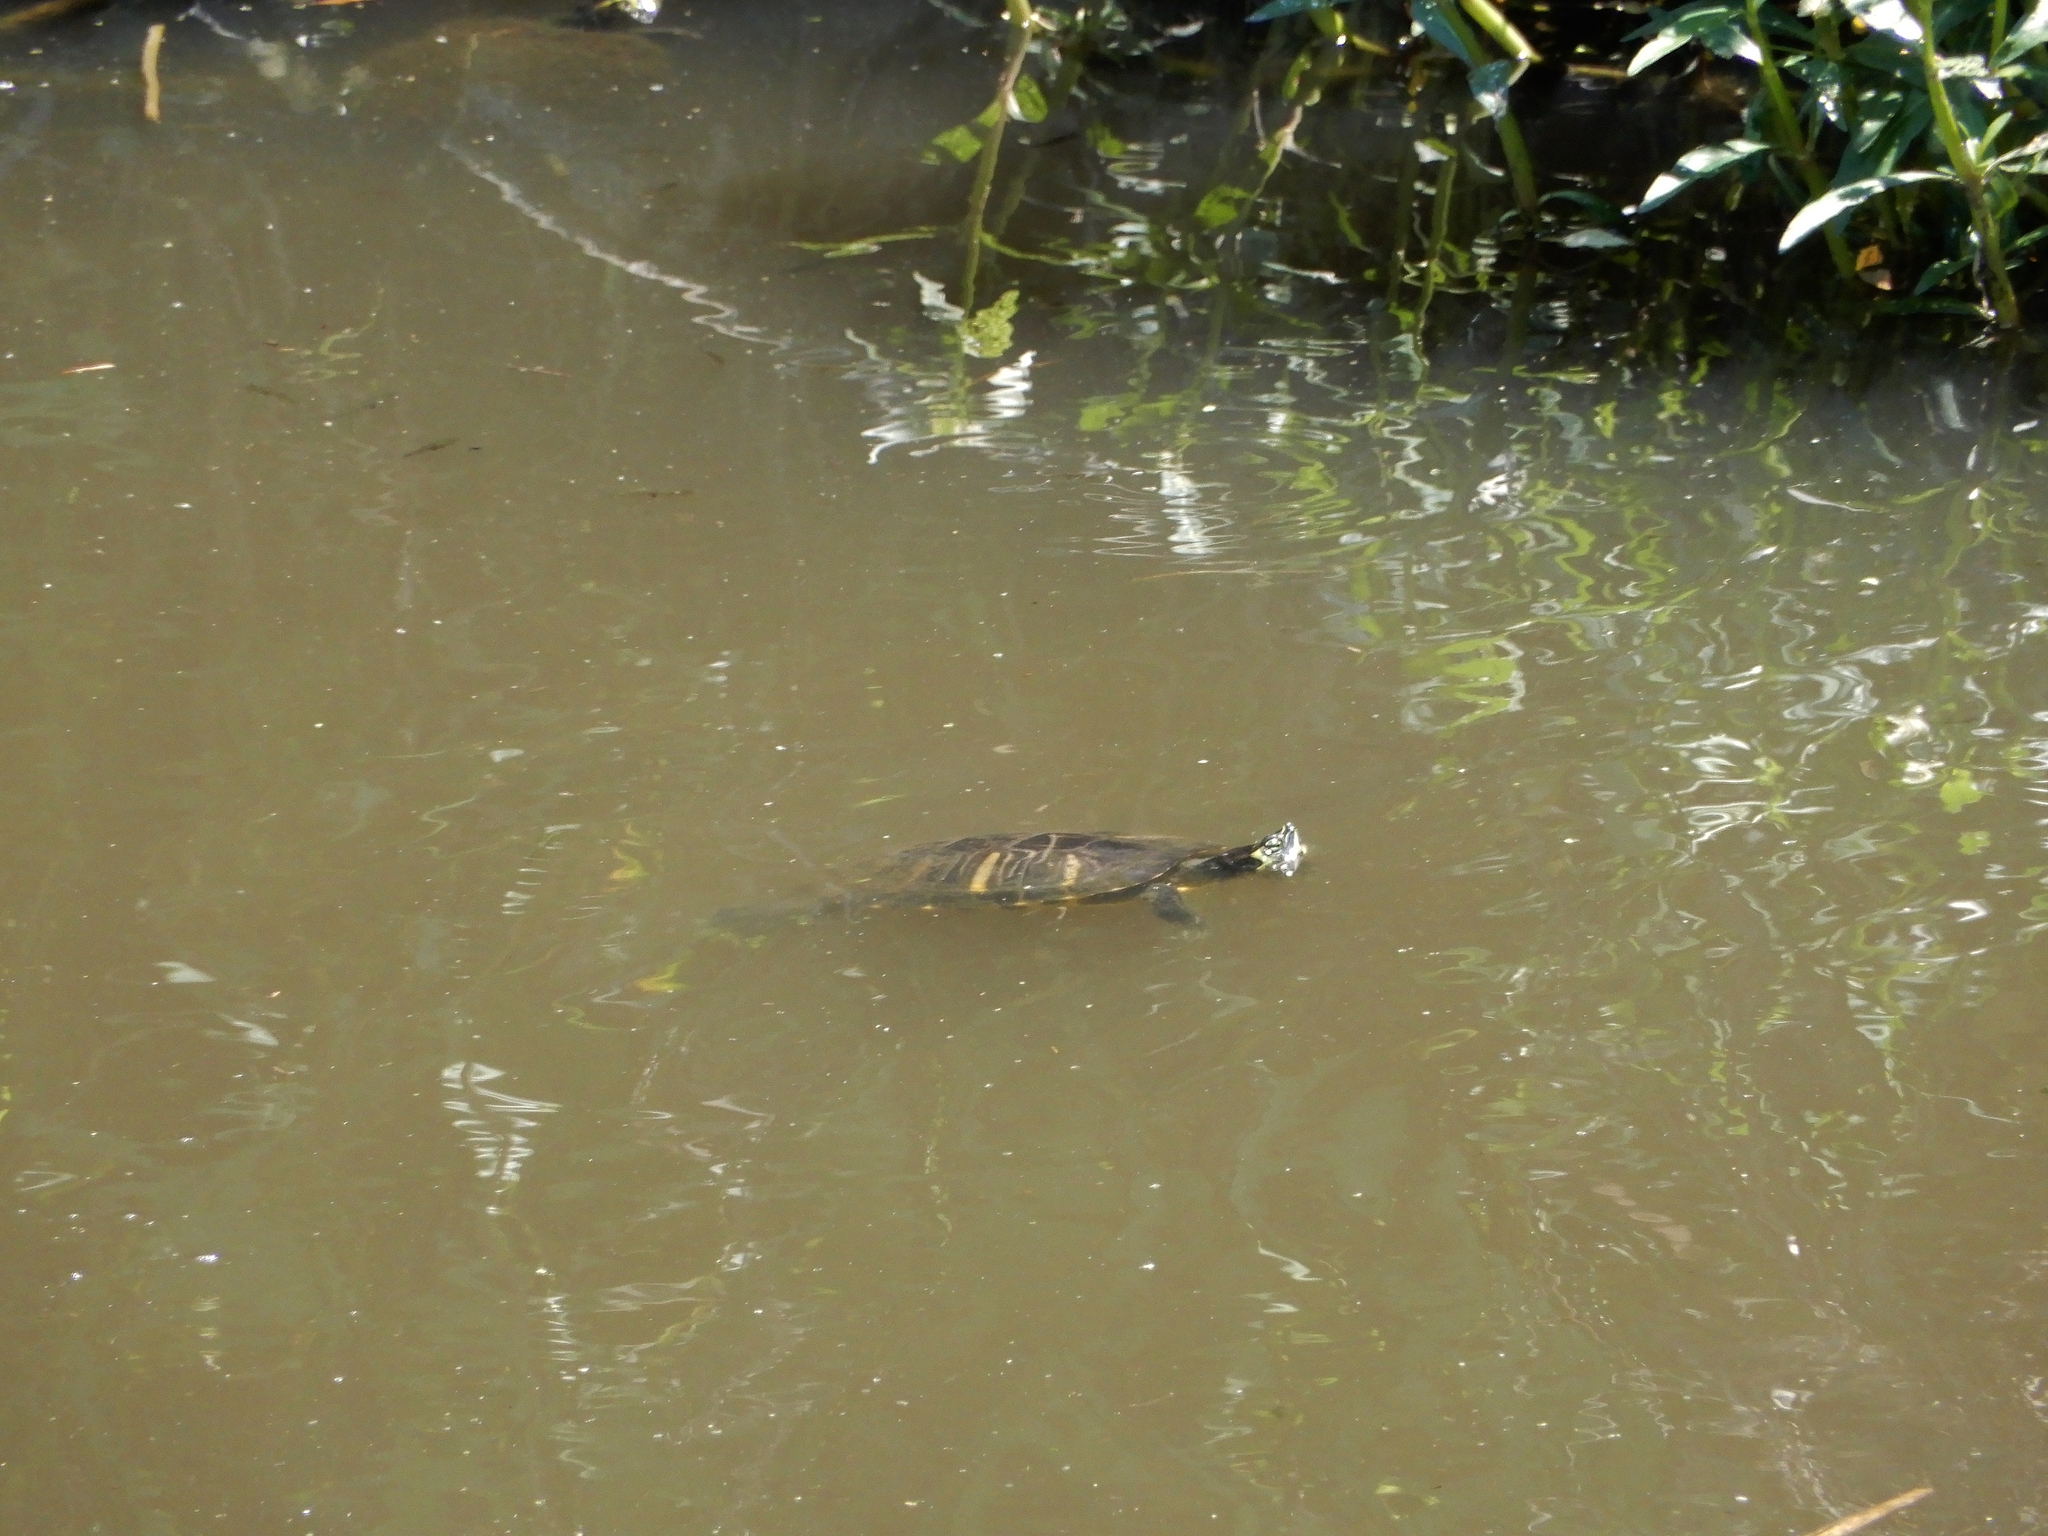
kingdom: Animalia
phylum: Chordata
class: Testudines
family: Emydidae
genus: Trachemys
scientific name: Trachemys scripta
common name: Slider
